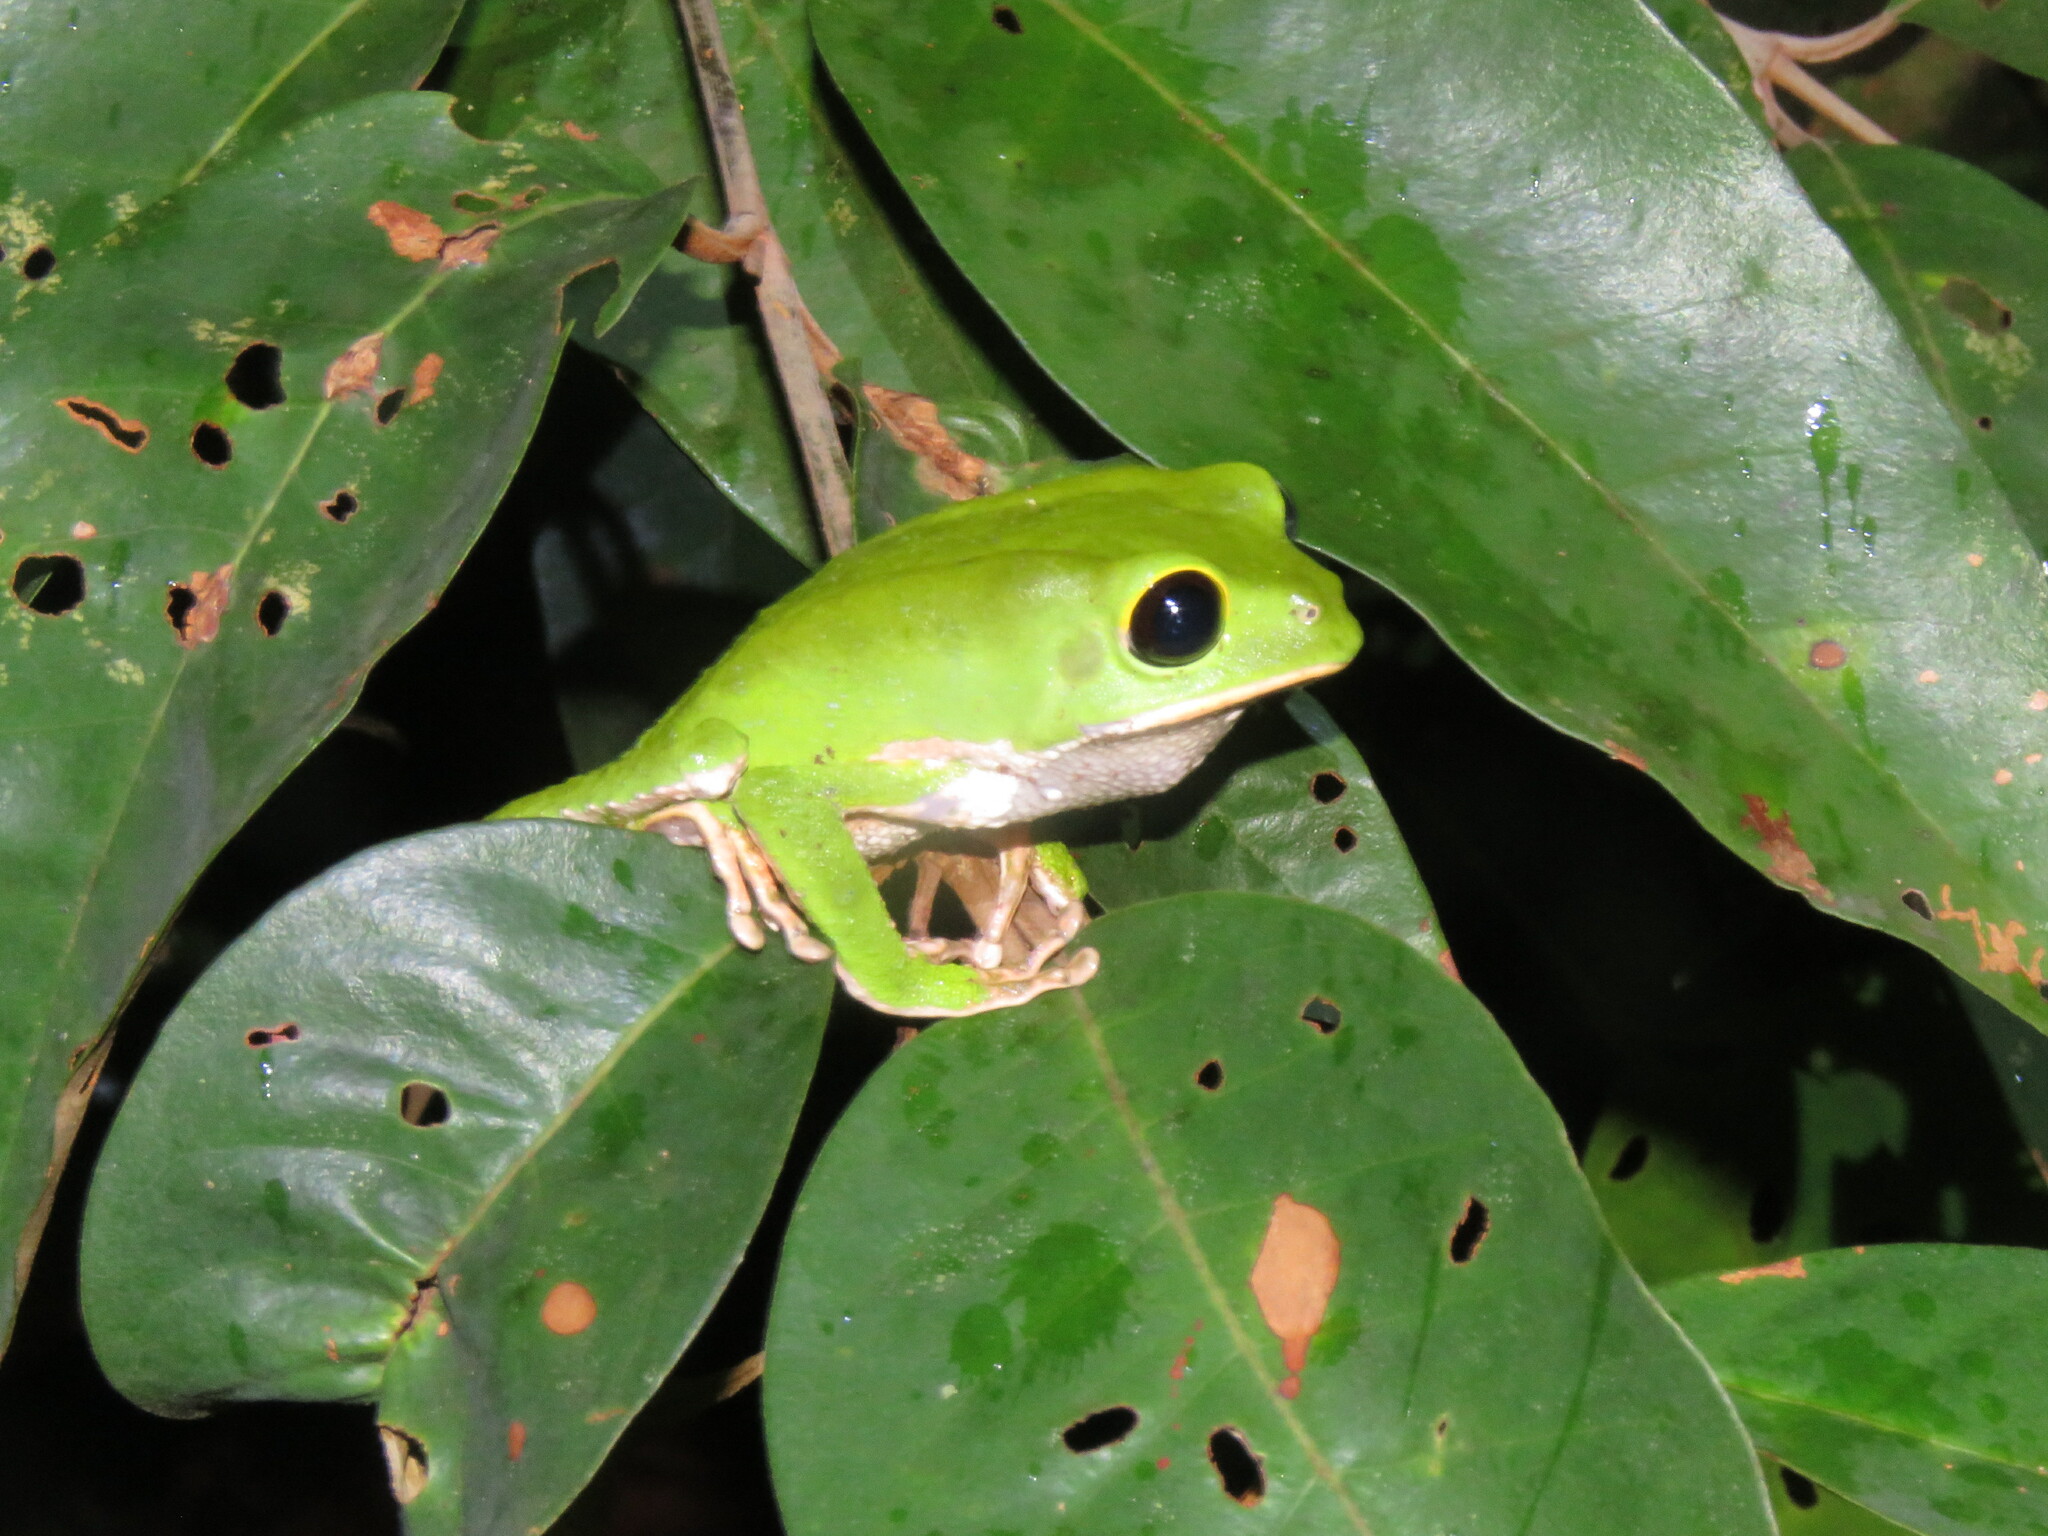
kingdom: Animalia
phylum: Chordata
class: Amphibia
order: Anura
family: Phyllomedusidae
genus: Phyllomedusa
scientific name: Phyllomedusa camba
